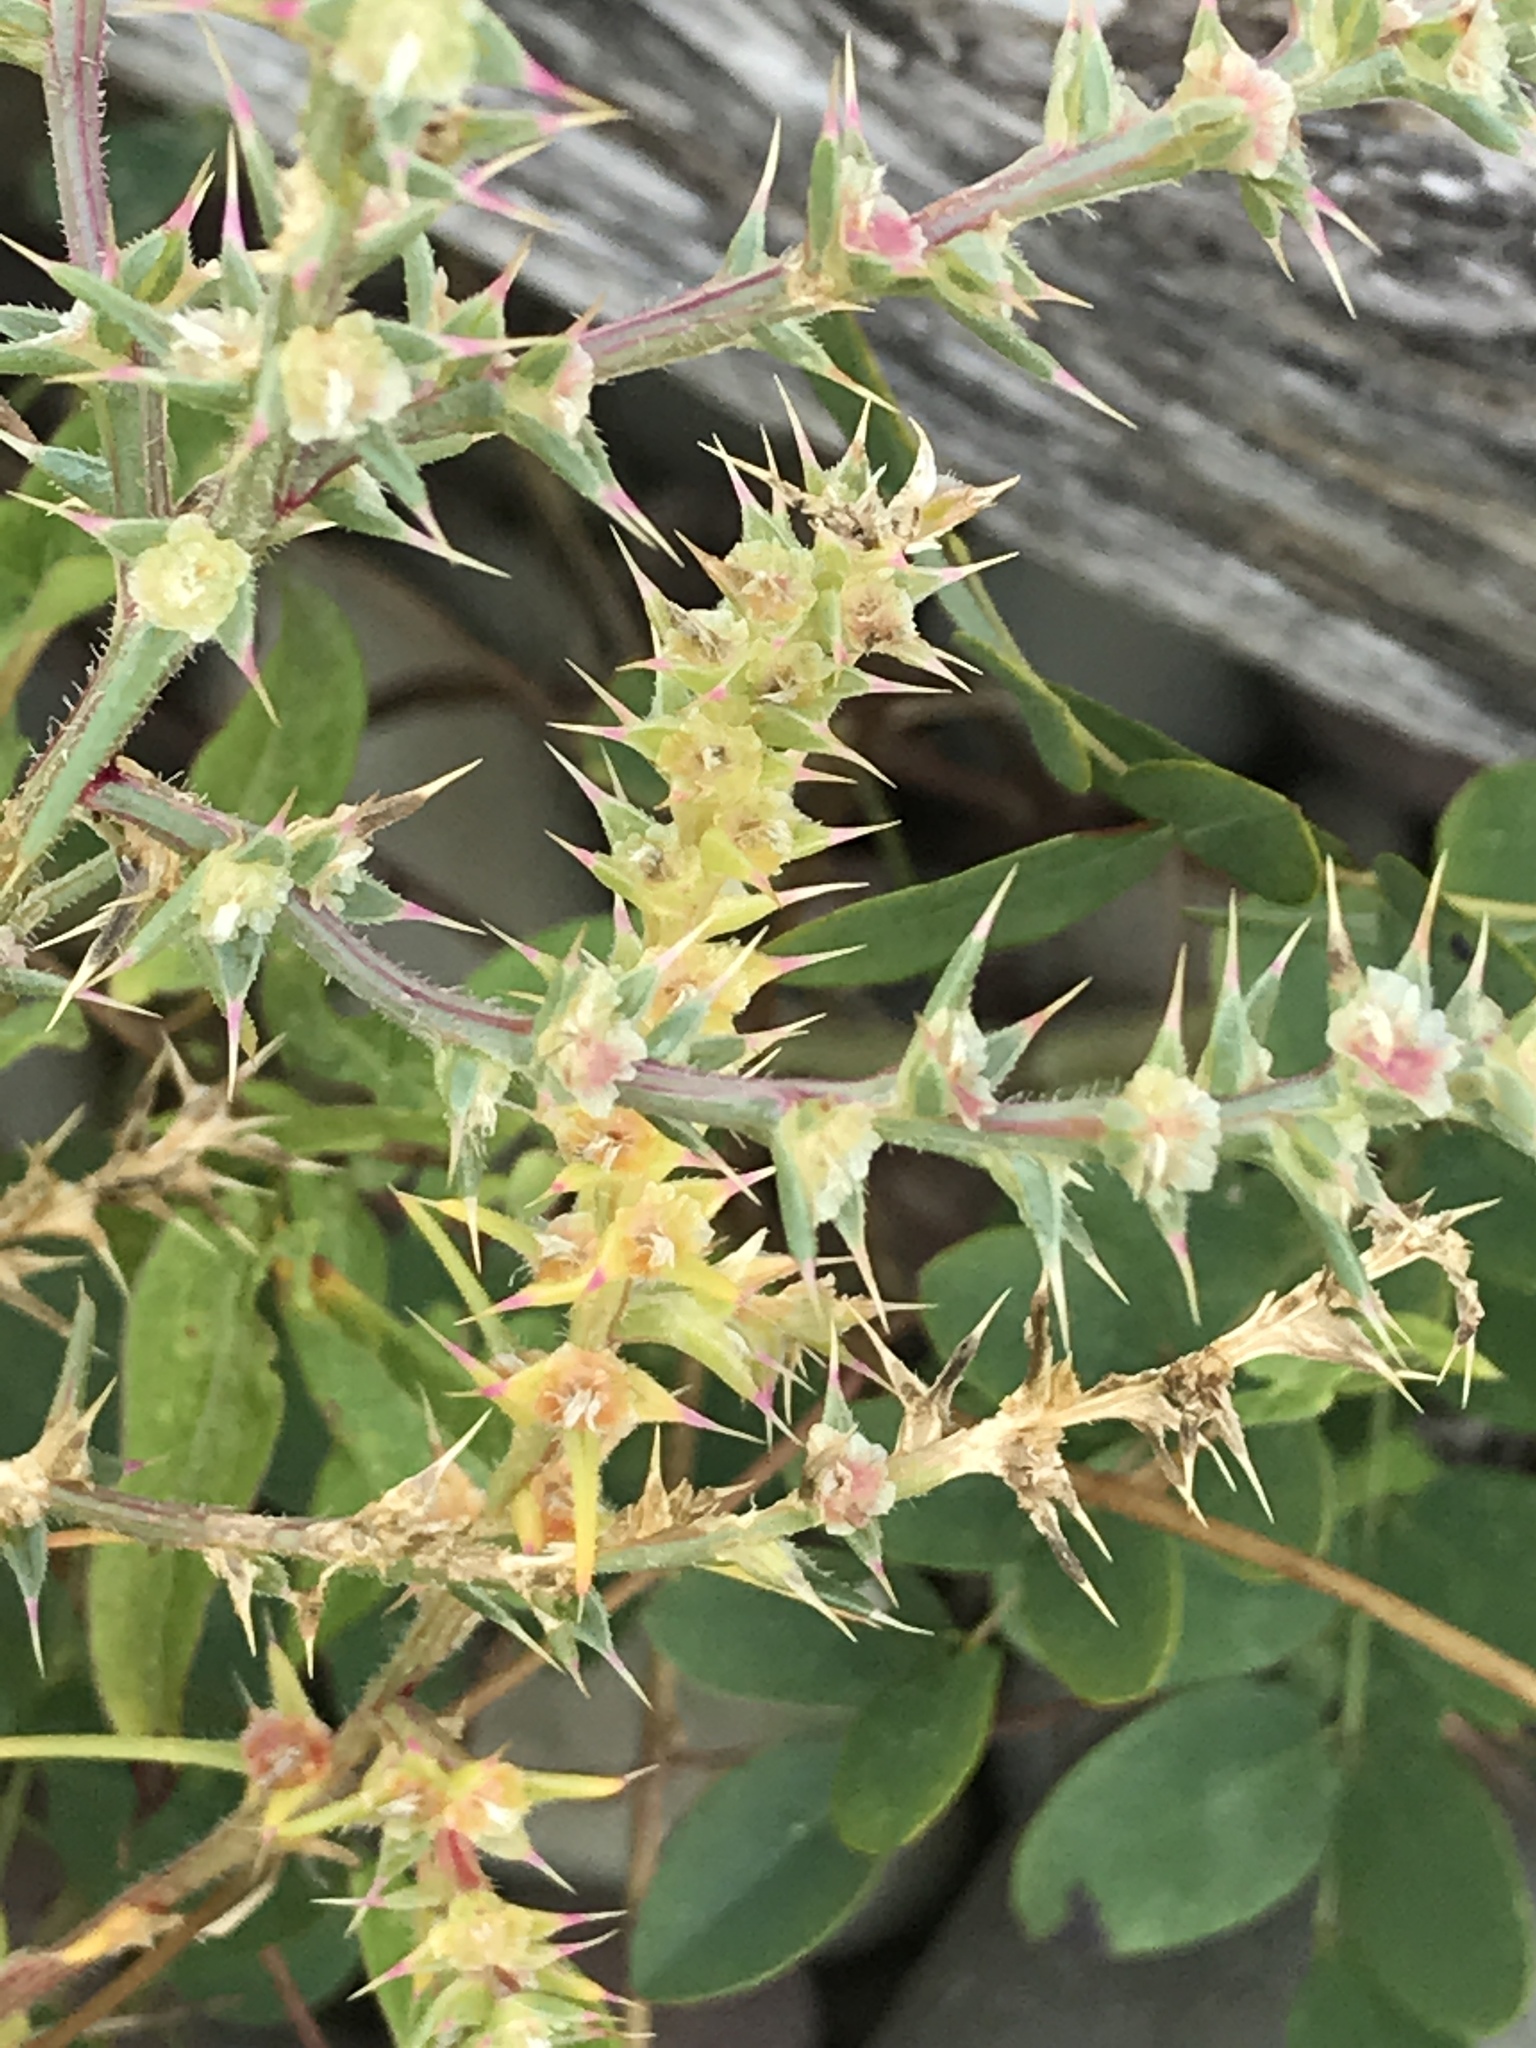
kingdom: Plantae
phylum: Tracheophyta
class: Magnoliopsida
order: Caryophyllales
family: Amaranthaceae
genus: Salsola
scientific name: Salsola tragus
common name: Prickly russian thistle
